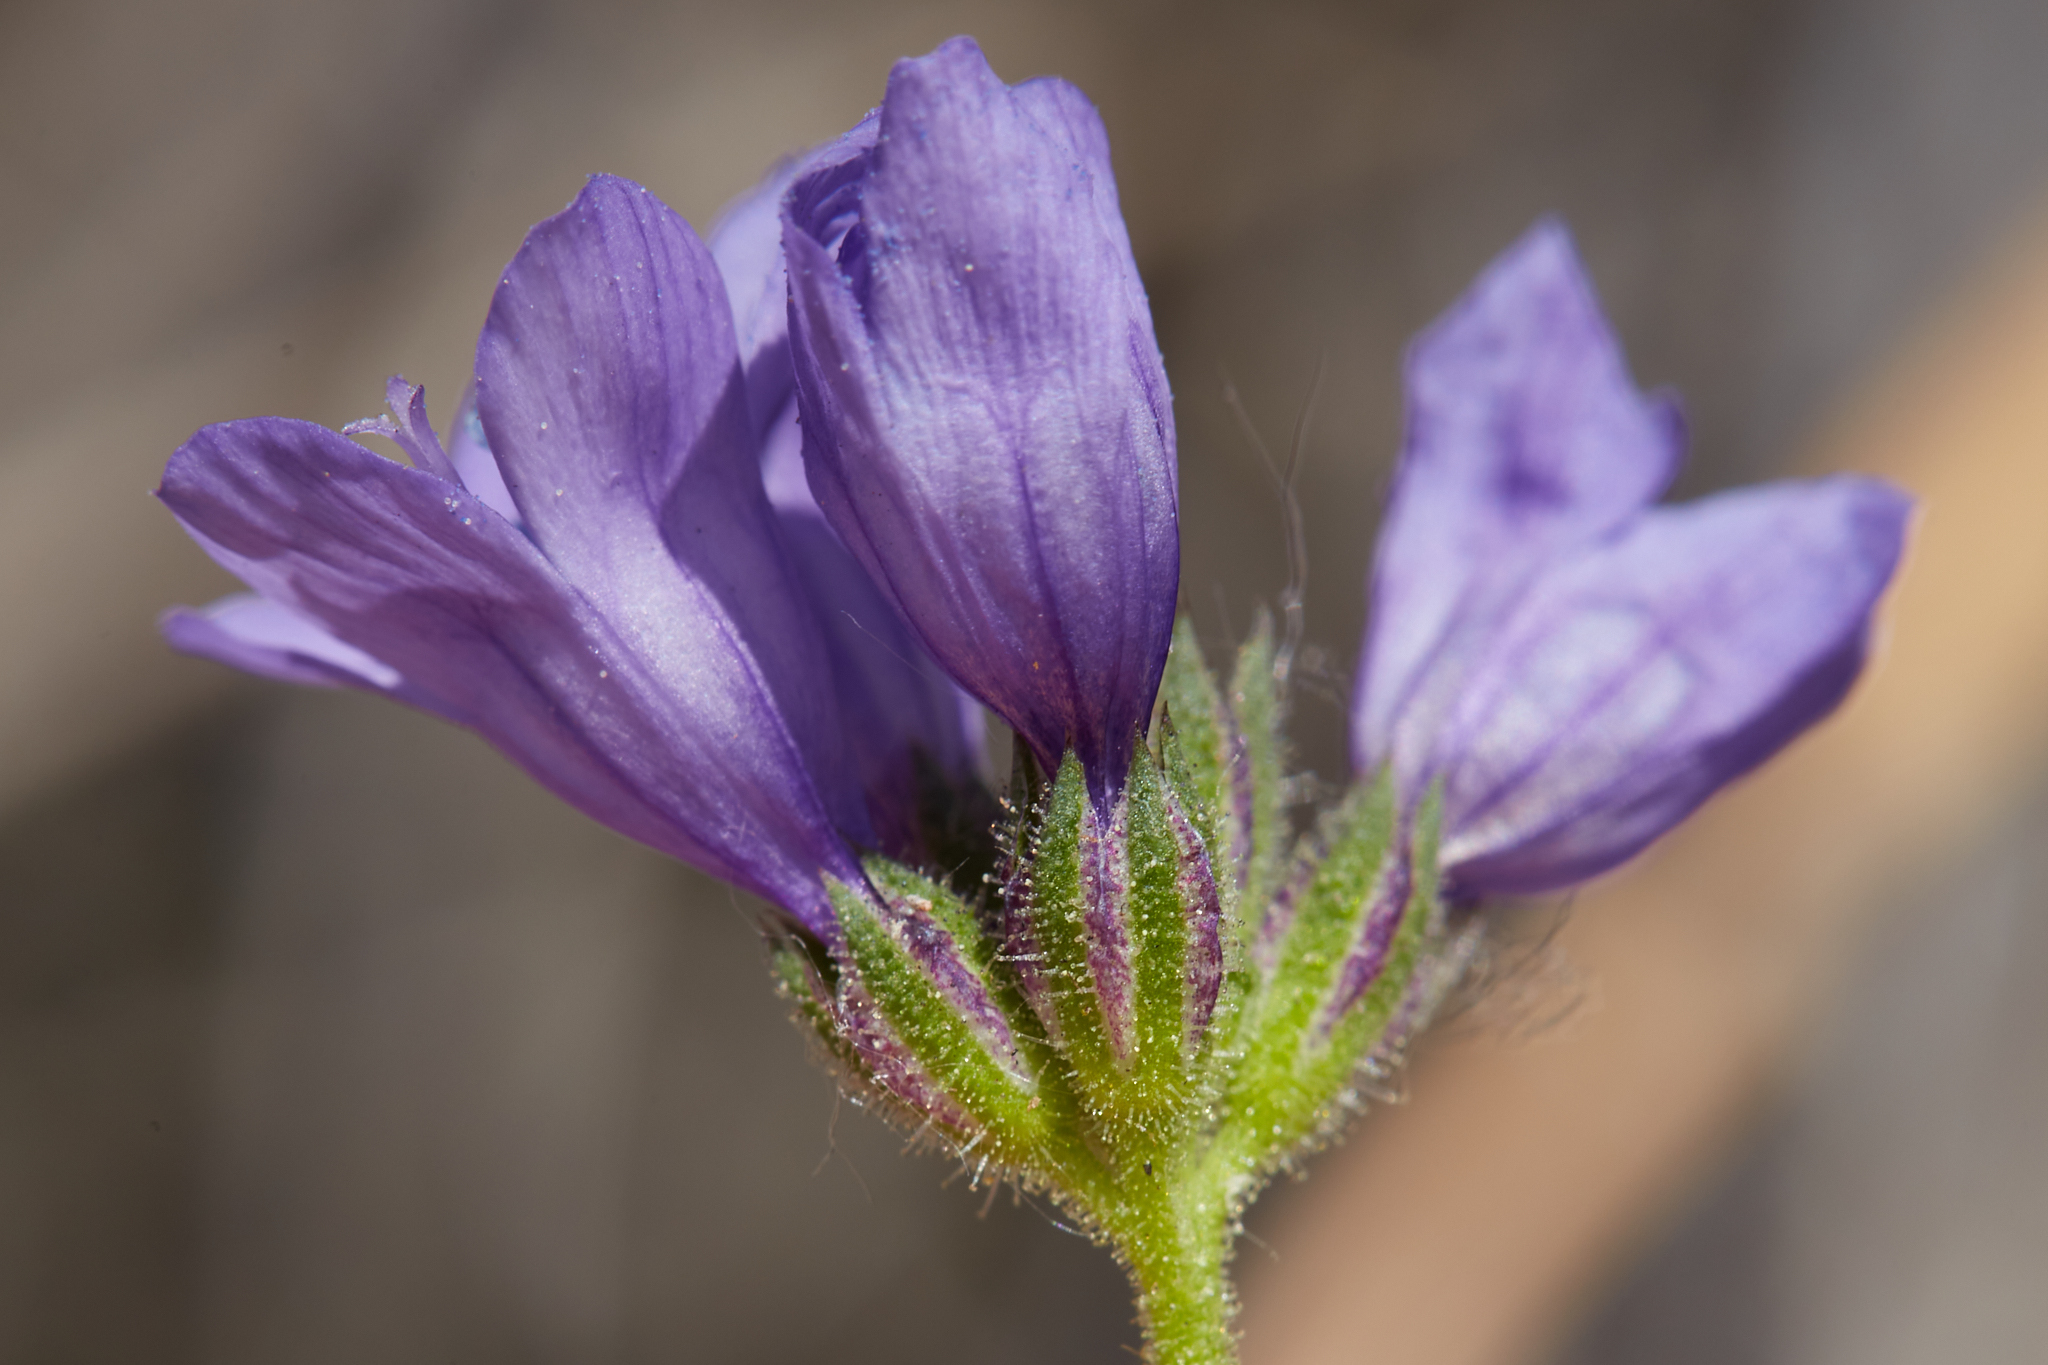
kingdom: Plantae
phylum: Tracheophyta
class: Magnoliopsida
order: Ericales
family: Polemoniaceae
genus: Gilia
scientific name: Gilia achilleifolia
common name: California gily-flower
